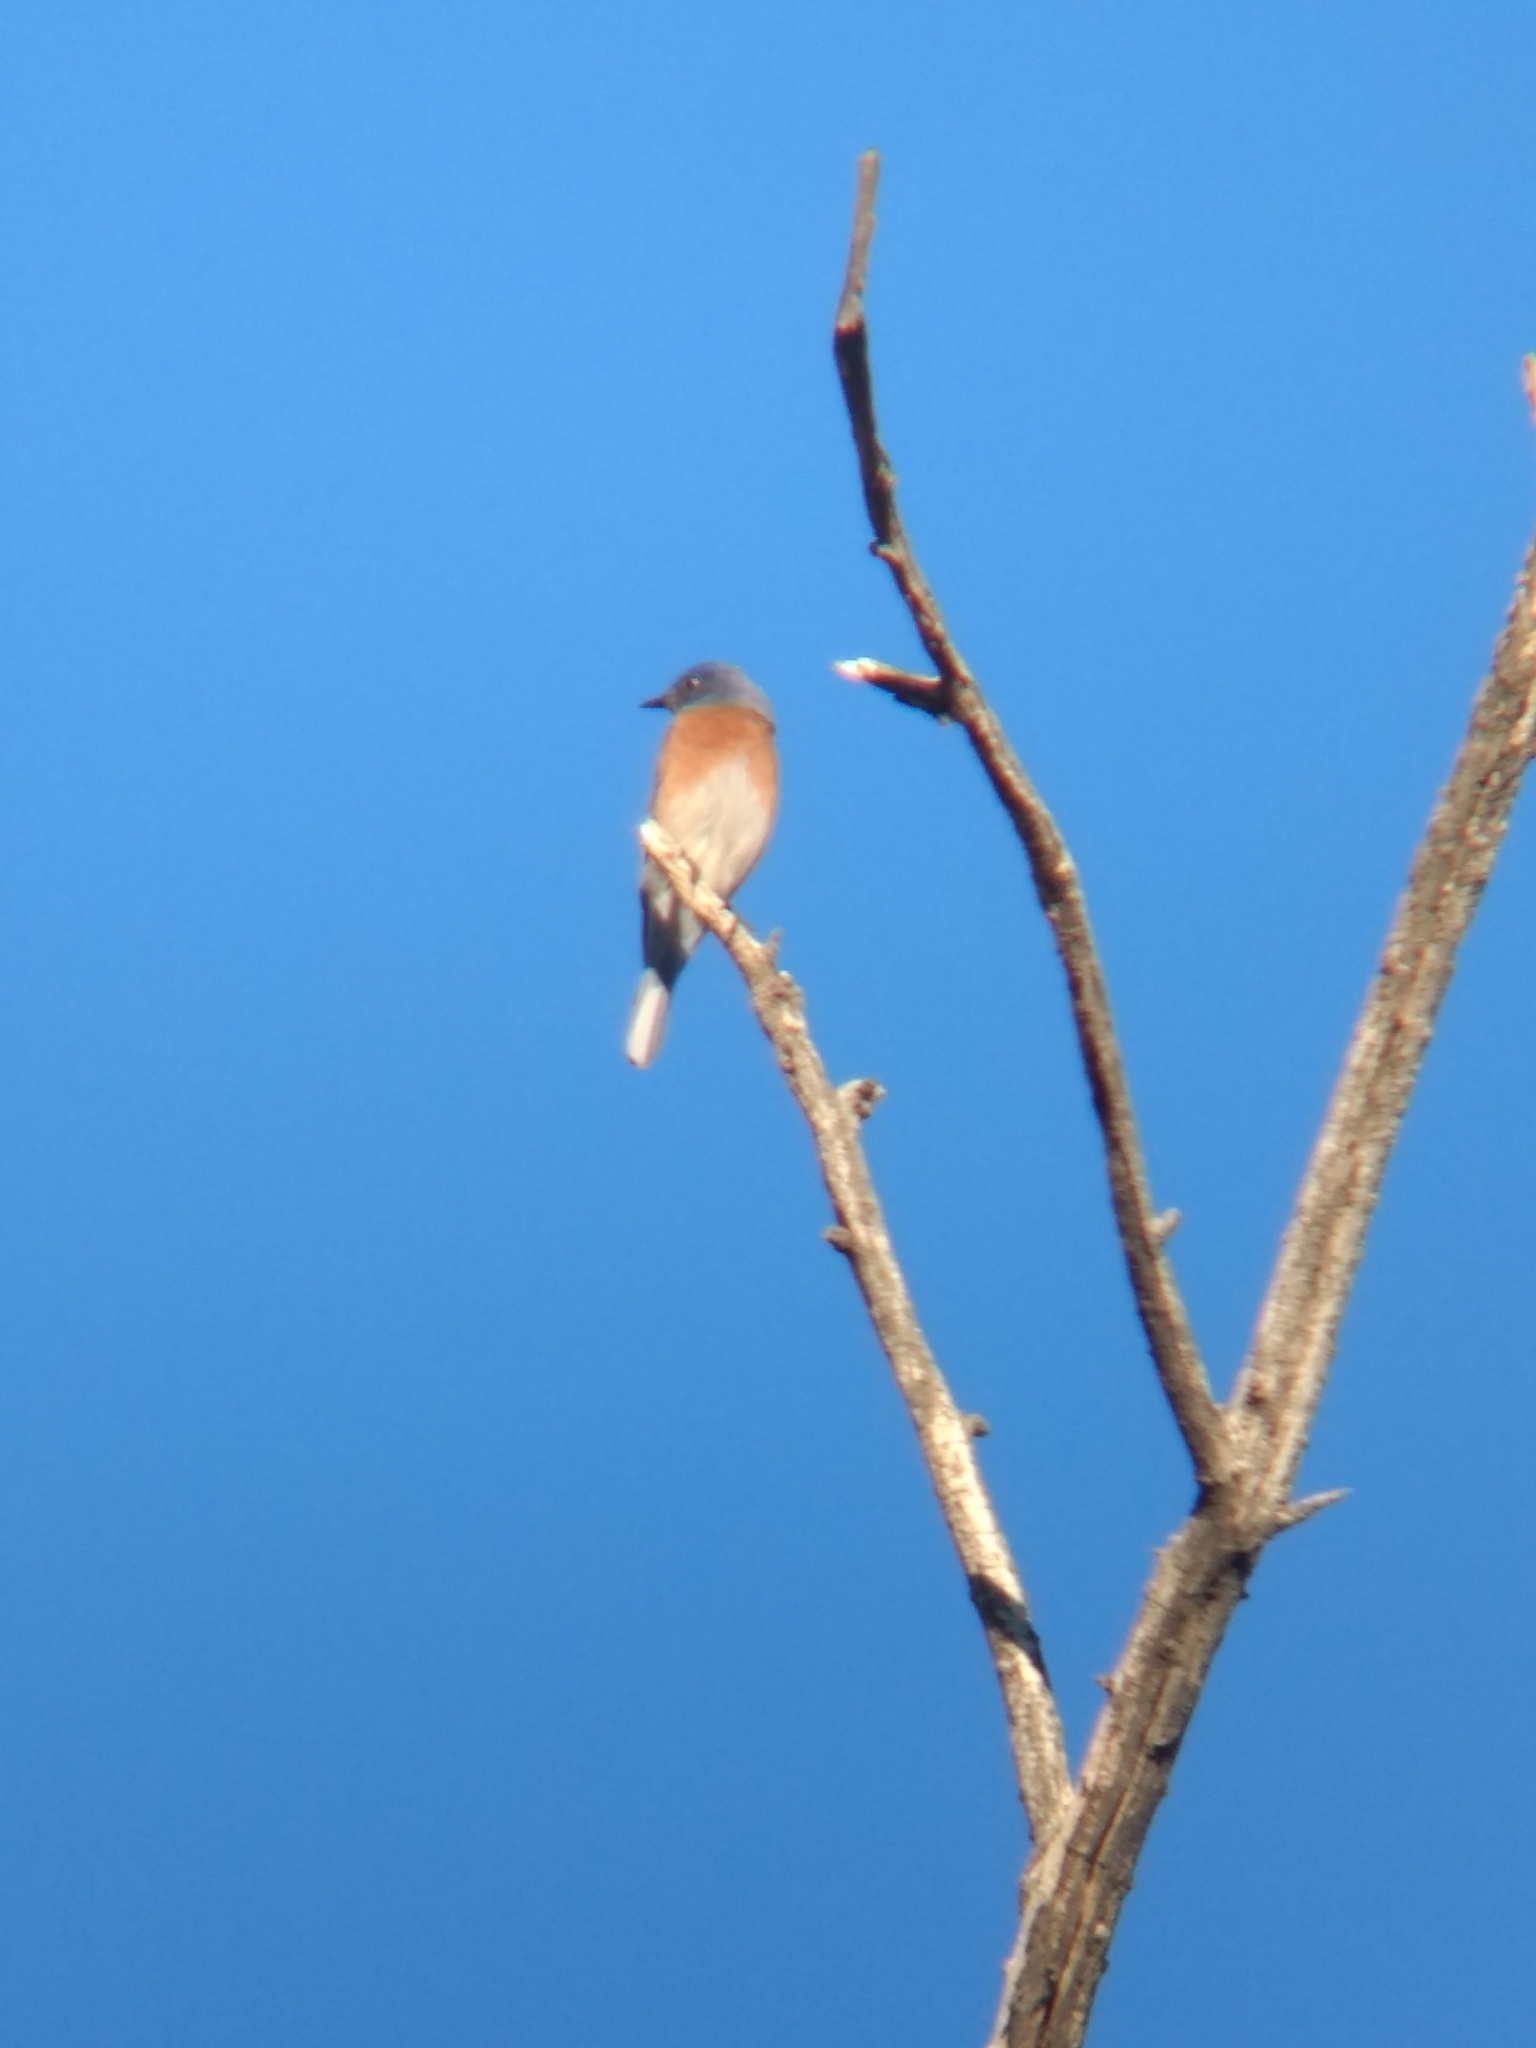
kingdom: Animalia
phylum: Chordata
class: Aves
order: Passeriformes
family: Turdidae
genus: Sialia
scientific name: Sialia mexicana
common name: Western bluebird
